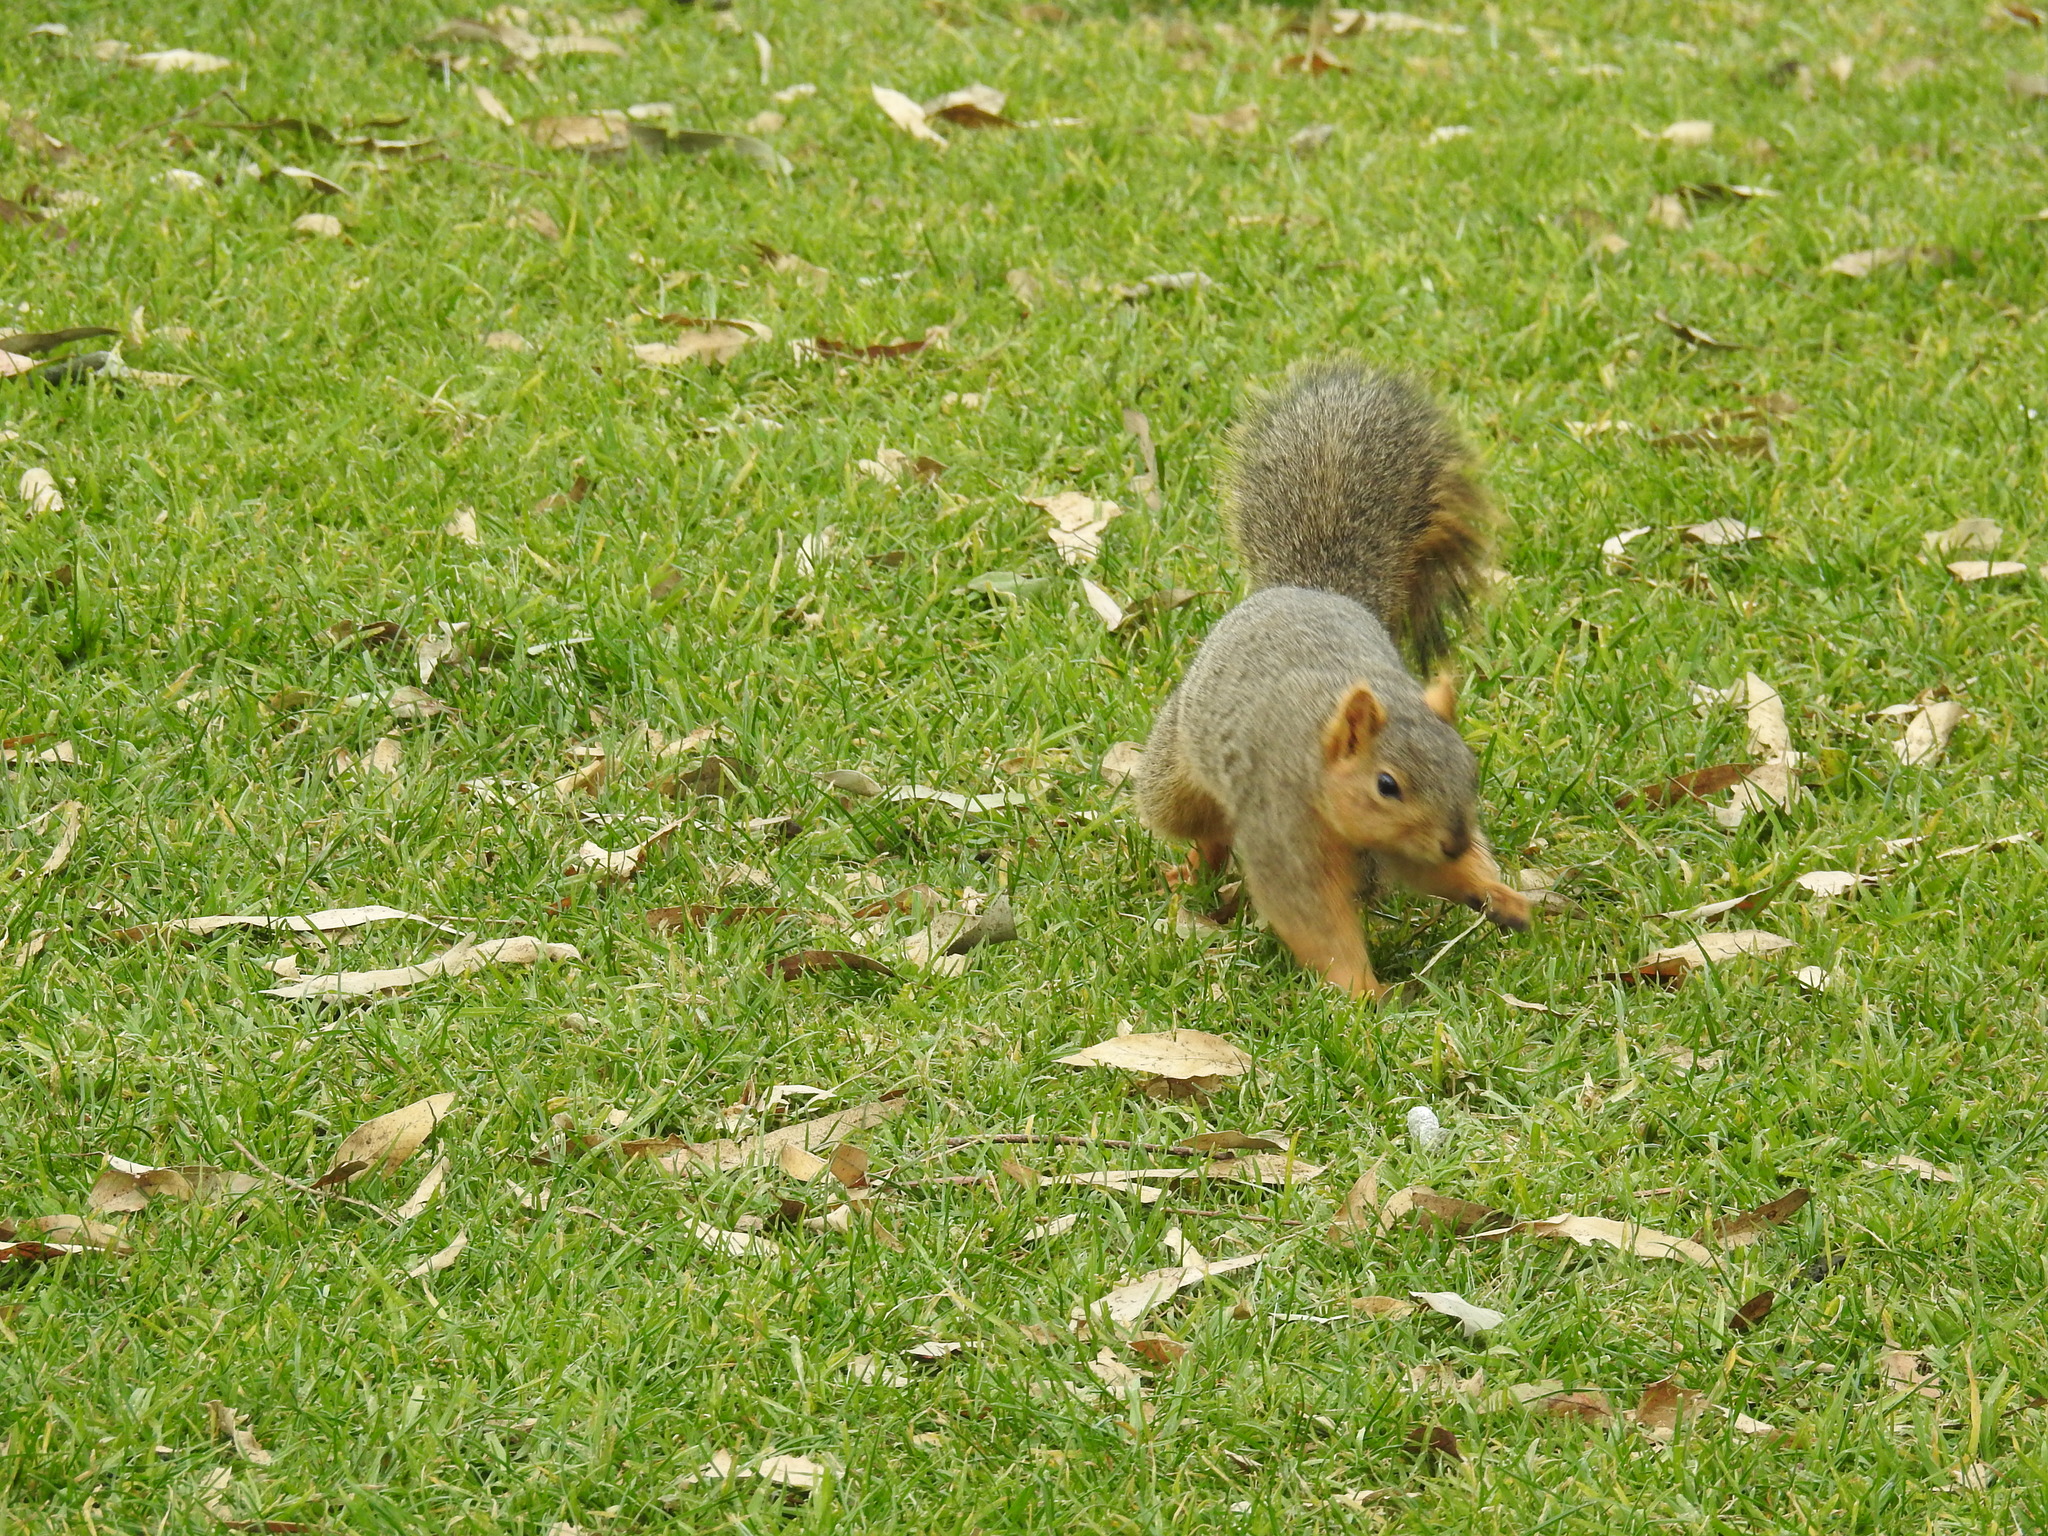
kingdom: Animalia
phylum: Chordata
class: Mammalia
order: Rodentia
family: Sciuridae
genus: Sciurus
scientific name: Sciurus niger
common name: Fox squirrel
